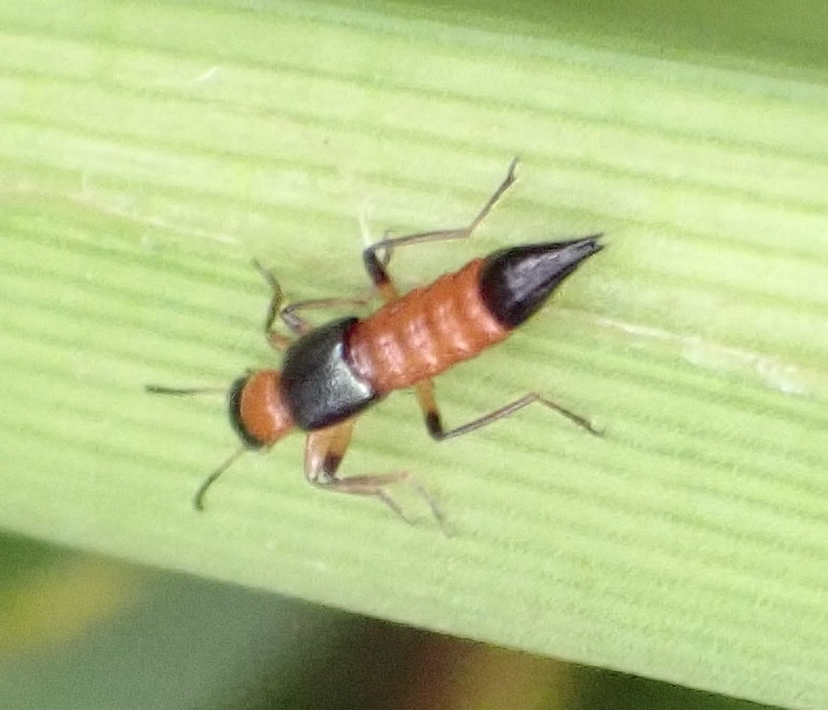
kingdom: Animalia
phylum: Arthropoda
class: Insecta
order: Coleoptera
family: Staphylinidae
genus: Paederus
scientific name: Paederus
